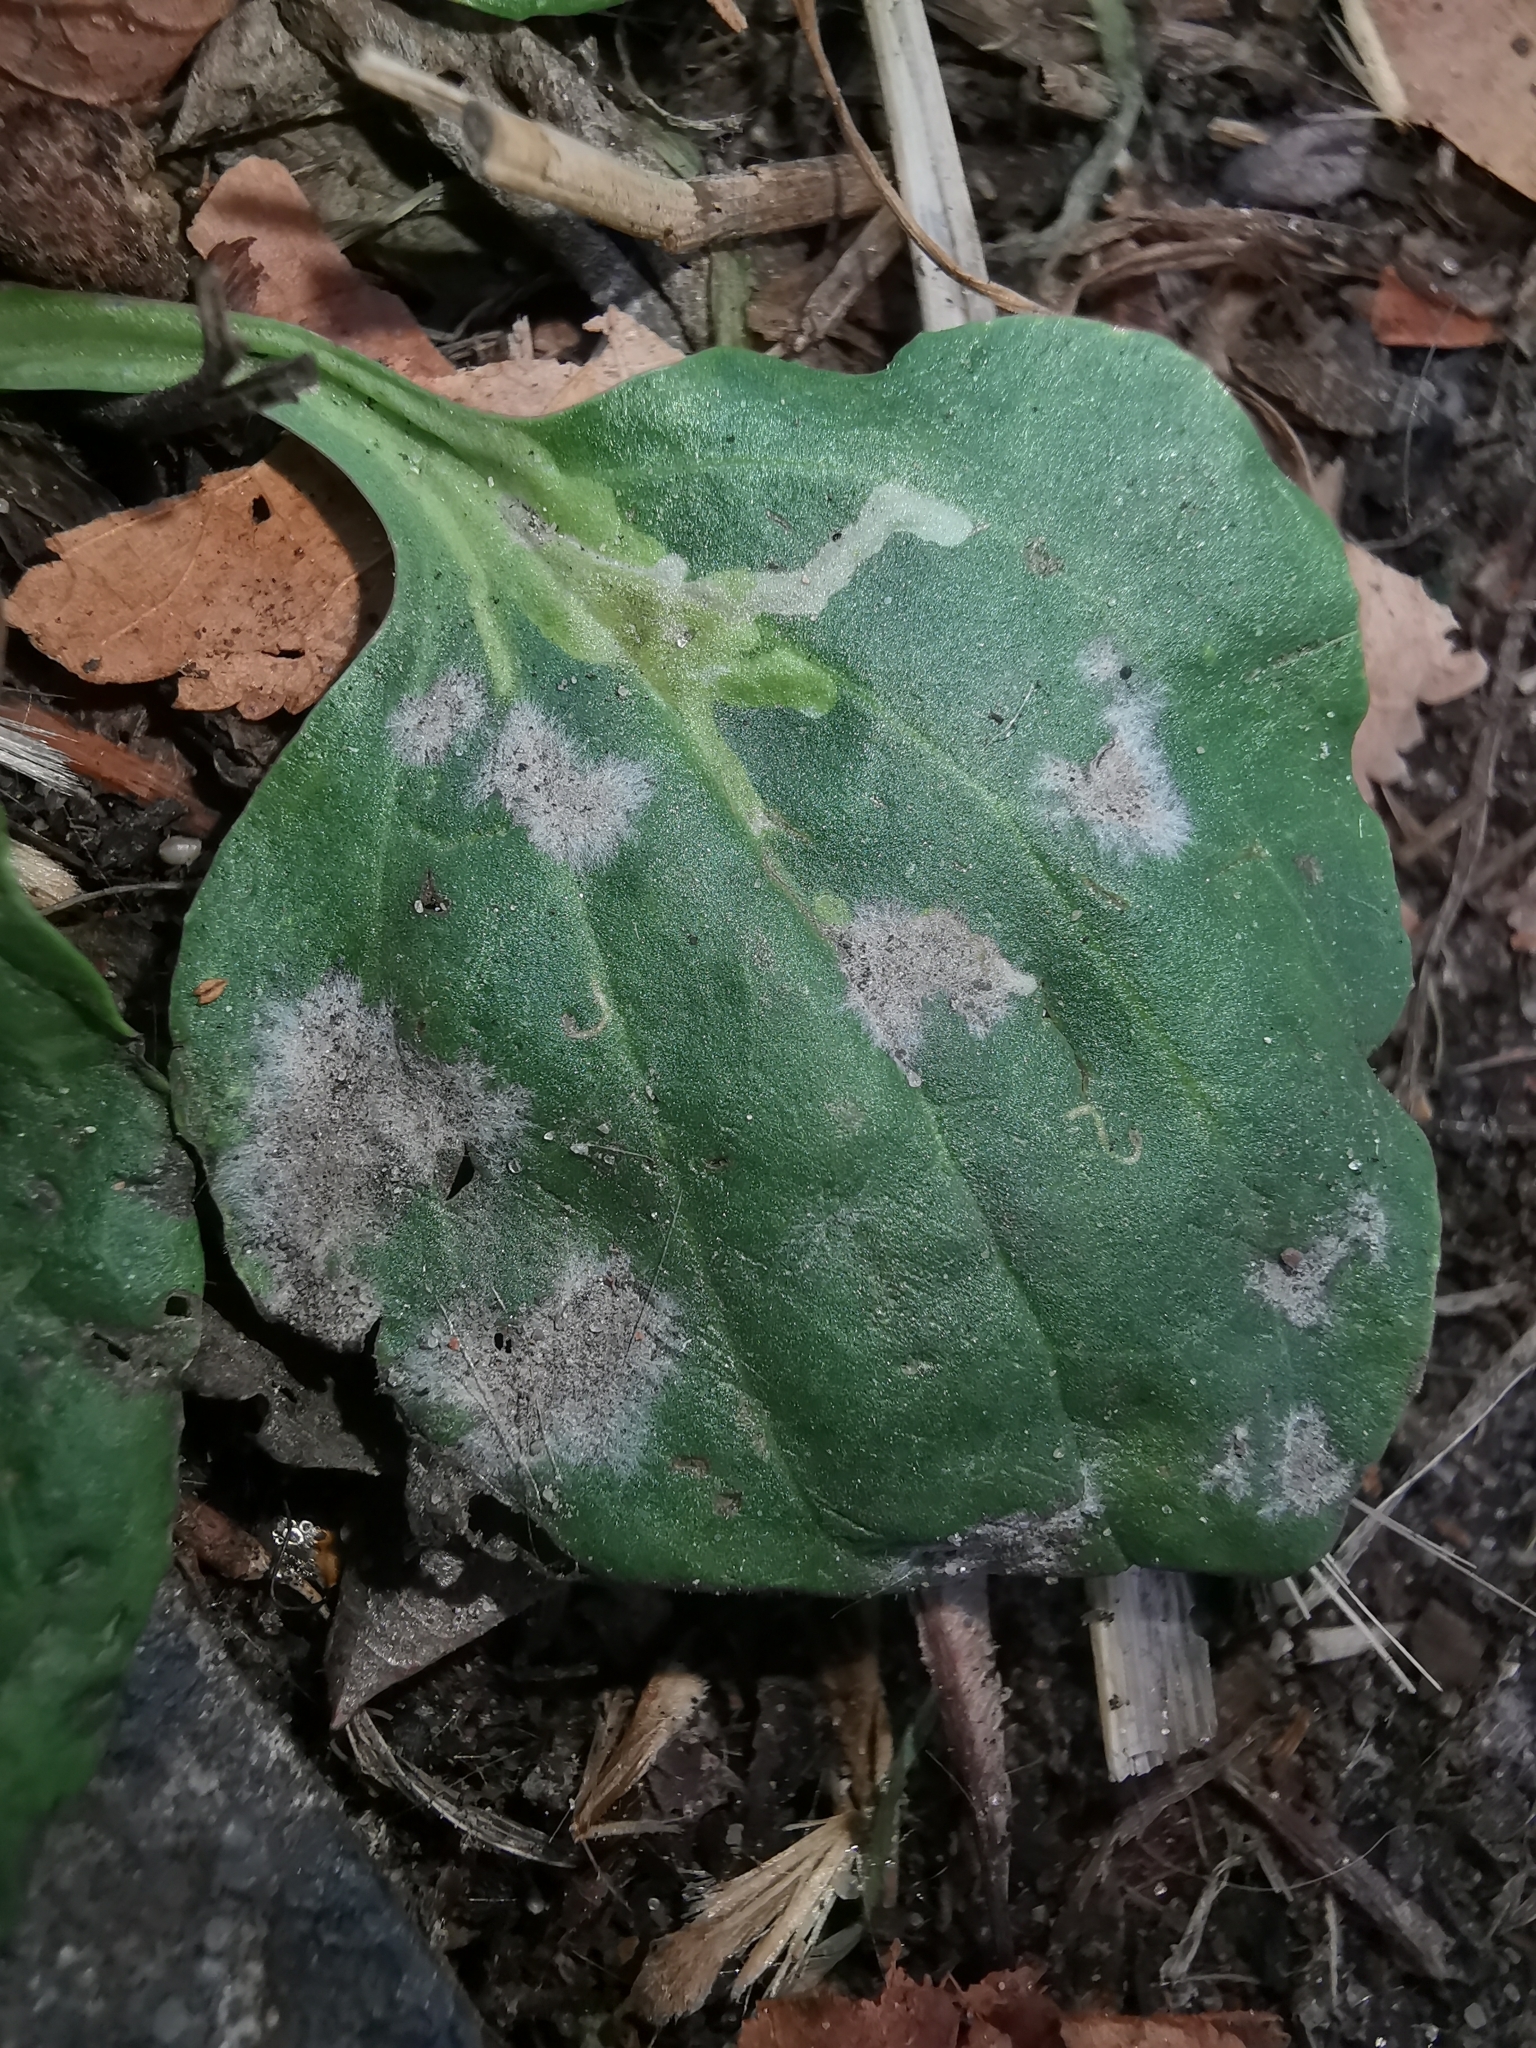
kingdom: Fungi
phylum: Ascomycota
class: Leotiomycetes
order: Helotiales
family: Erysiphaceae
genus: Golovinomyces
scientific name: Golovinomyces sordidus
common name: Plantain mildew
